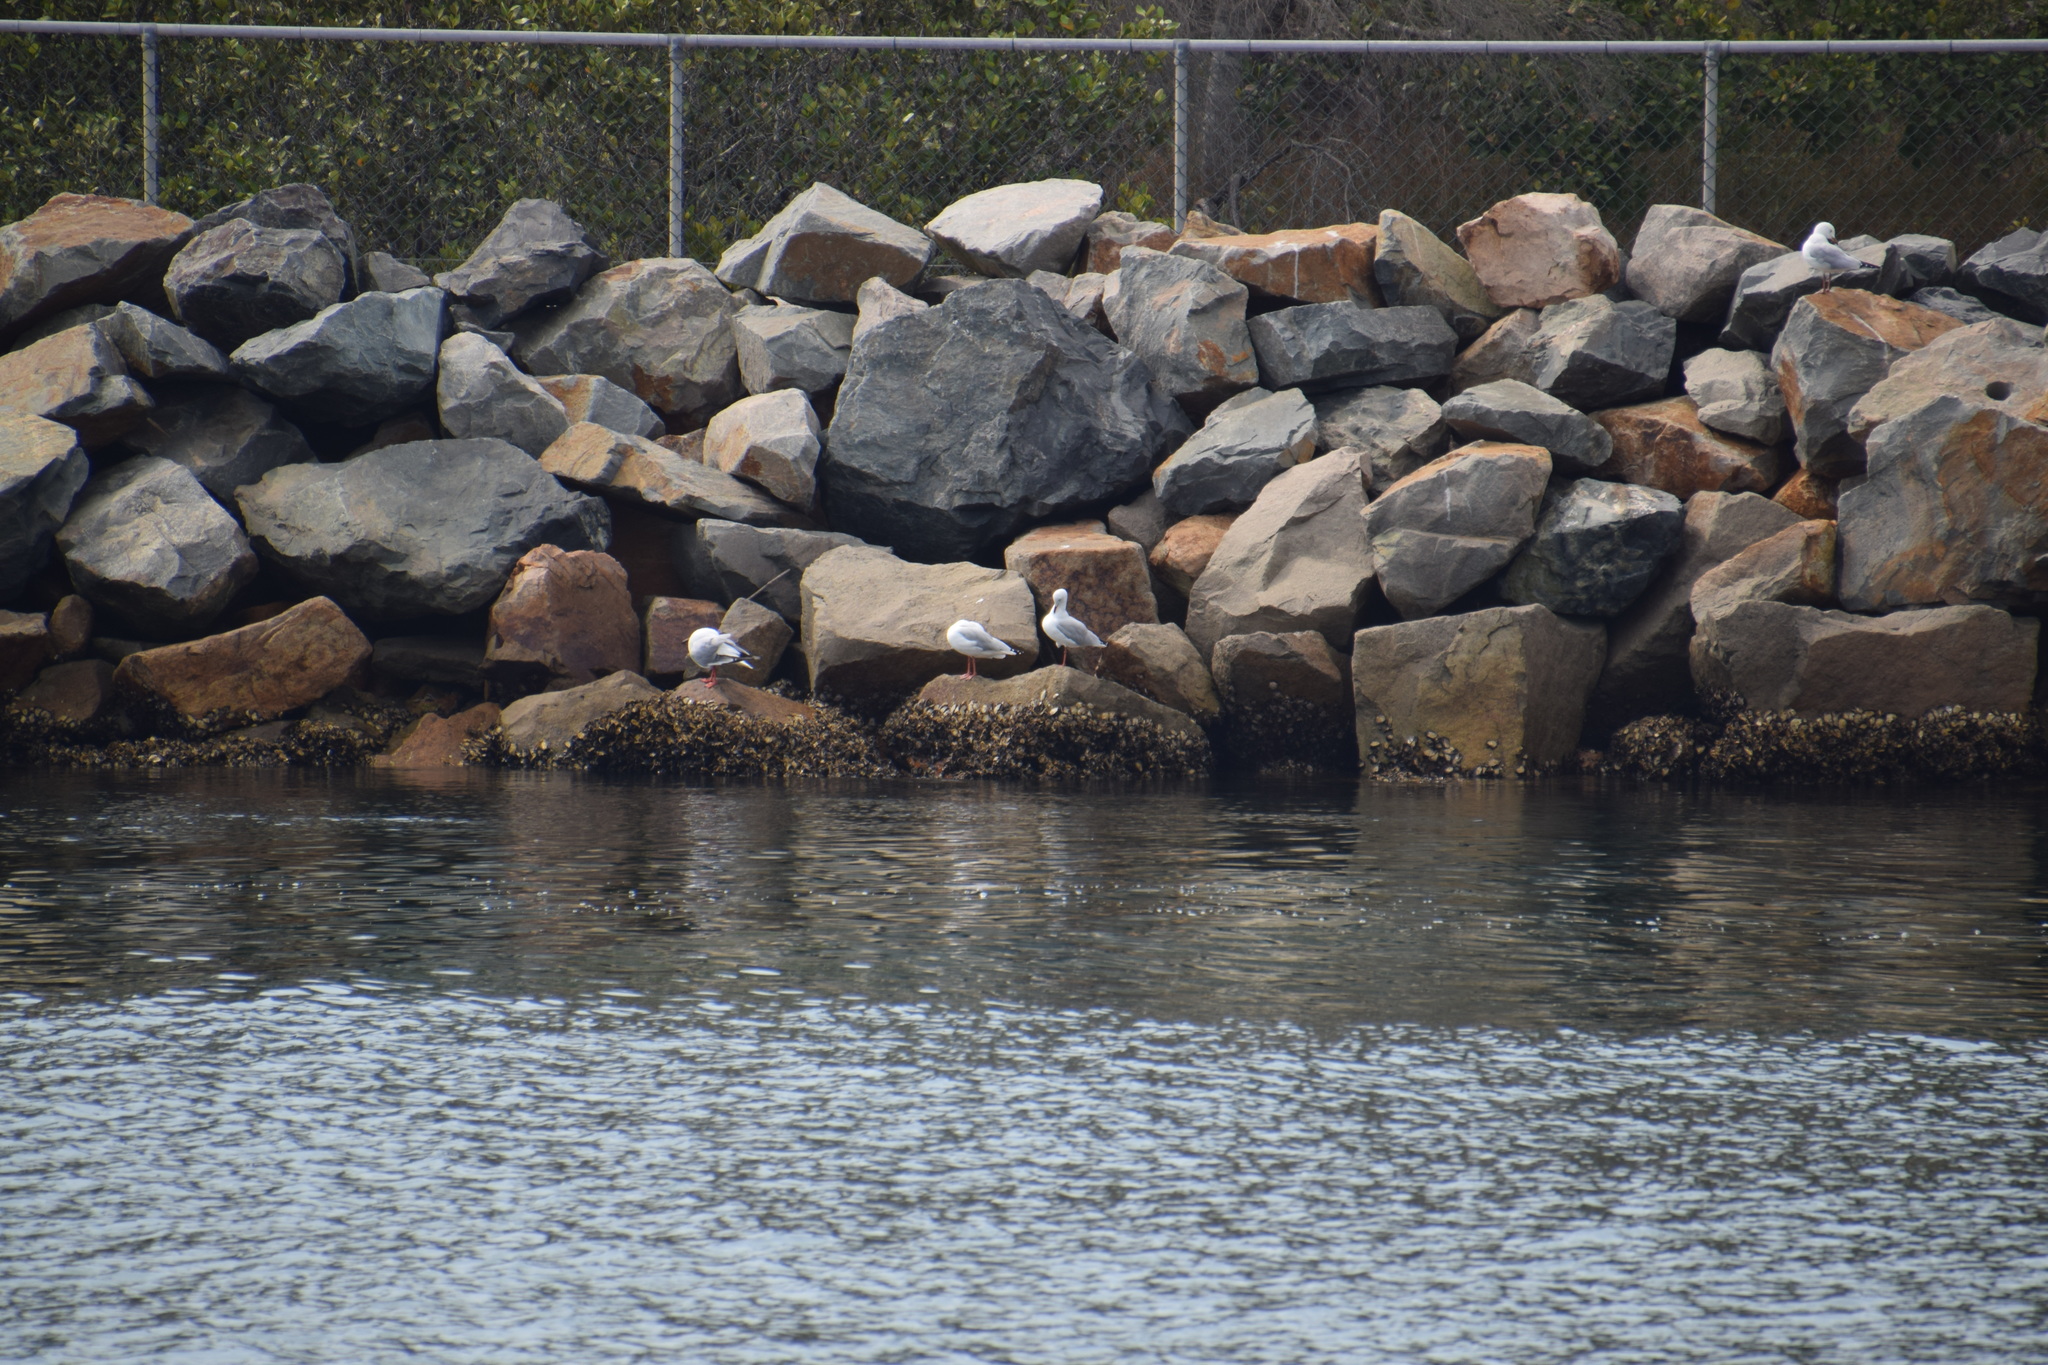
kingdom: Animalia
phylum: Chordata
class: Aves
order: Charadriiformes
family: Laridae
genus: Chroicocephalus
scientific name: Chroicocephalus novaehollandiae
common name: Silver gull
